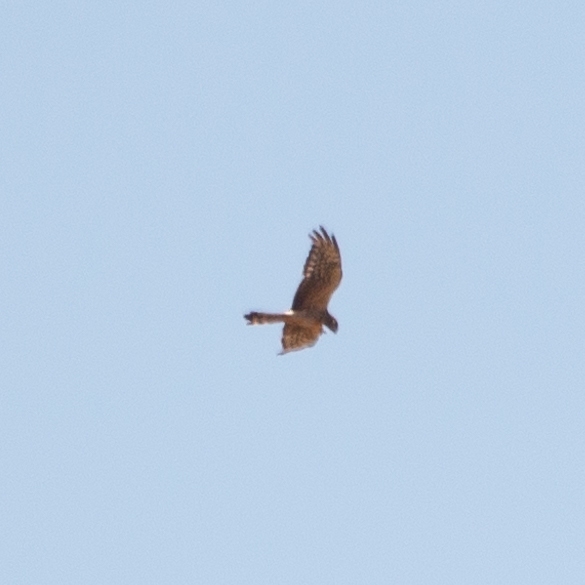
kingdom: Animalia
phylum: Chordata
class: Aves
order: Accipitriformes
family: Accipitridae
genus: Circus
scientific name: Circus pygargus
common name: Montagu's harrier
